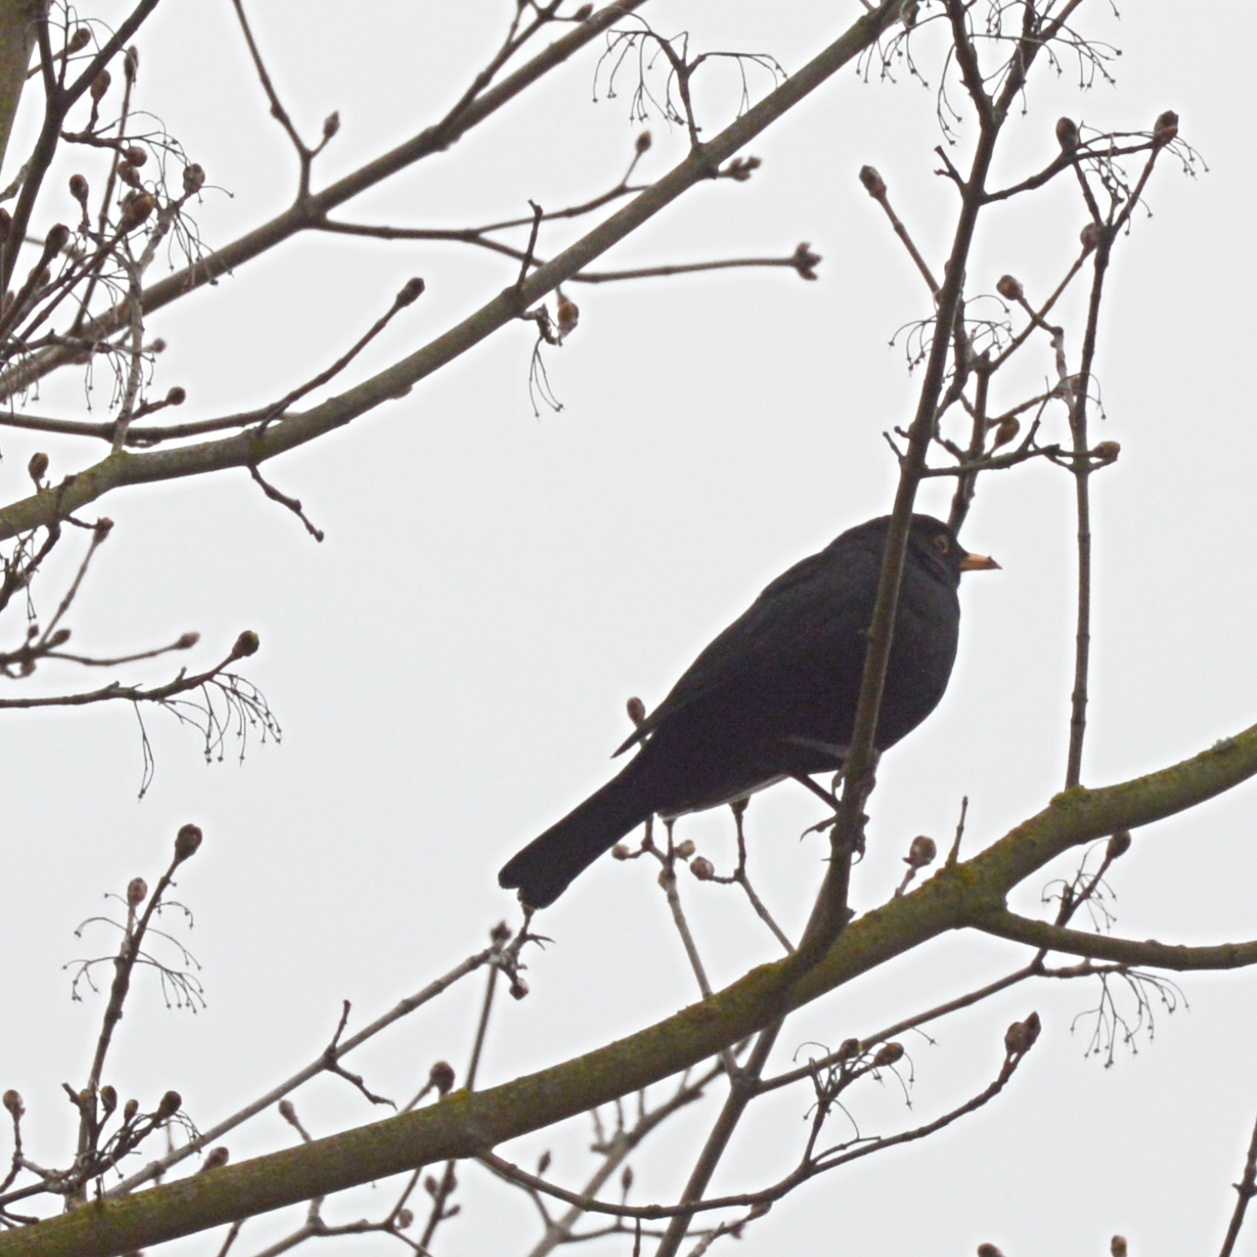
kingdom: Animalia
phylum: Chordata
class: Aves
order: Passeriformes
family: Turdidae
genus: Turdus
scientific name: Turdus merula
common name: Common blackbird
